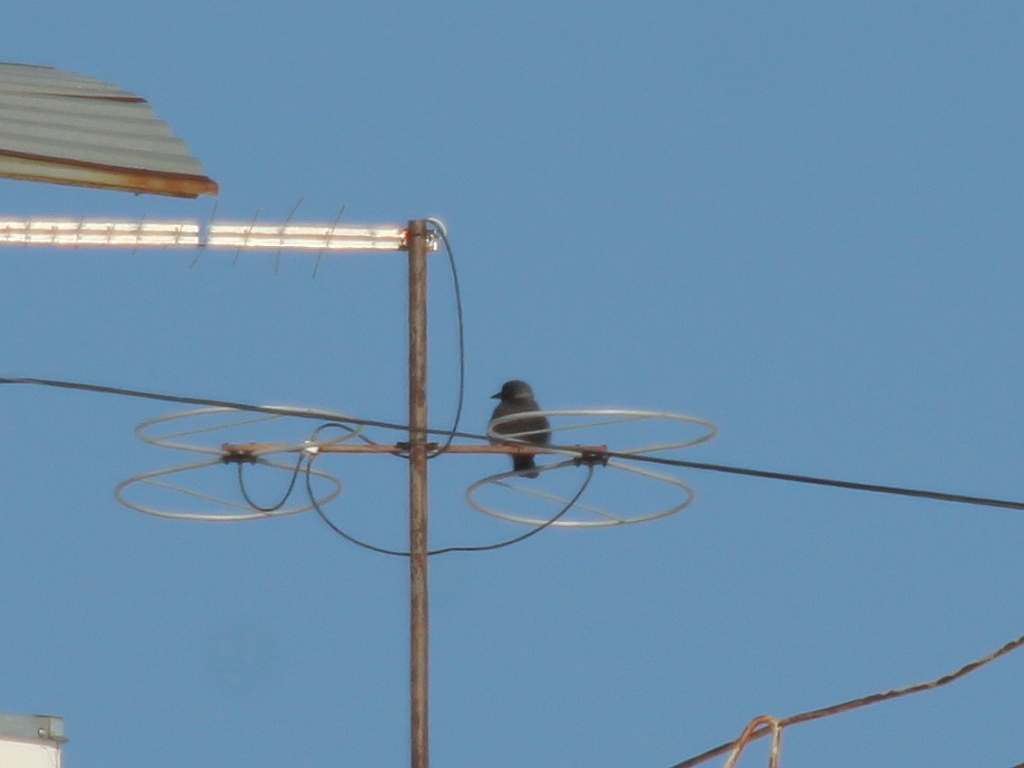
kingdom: Animalia
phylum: Chordata
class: Aves
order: Passeriformes
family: Corvidae
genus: Coloeus
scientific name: Coloeus monedula
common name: Western jackdaw
